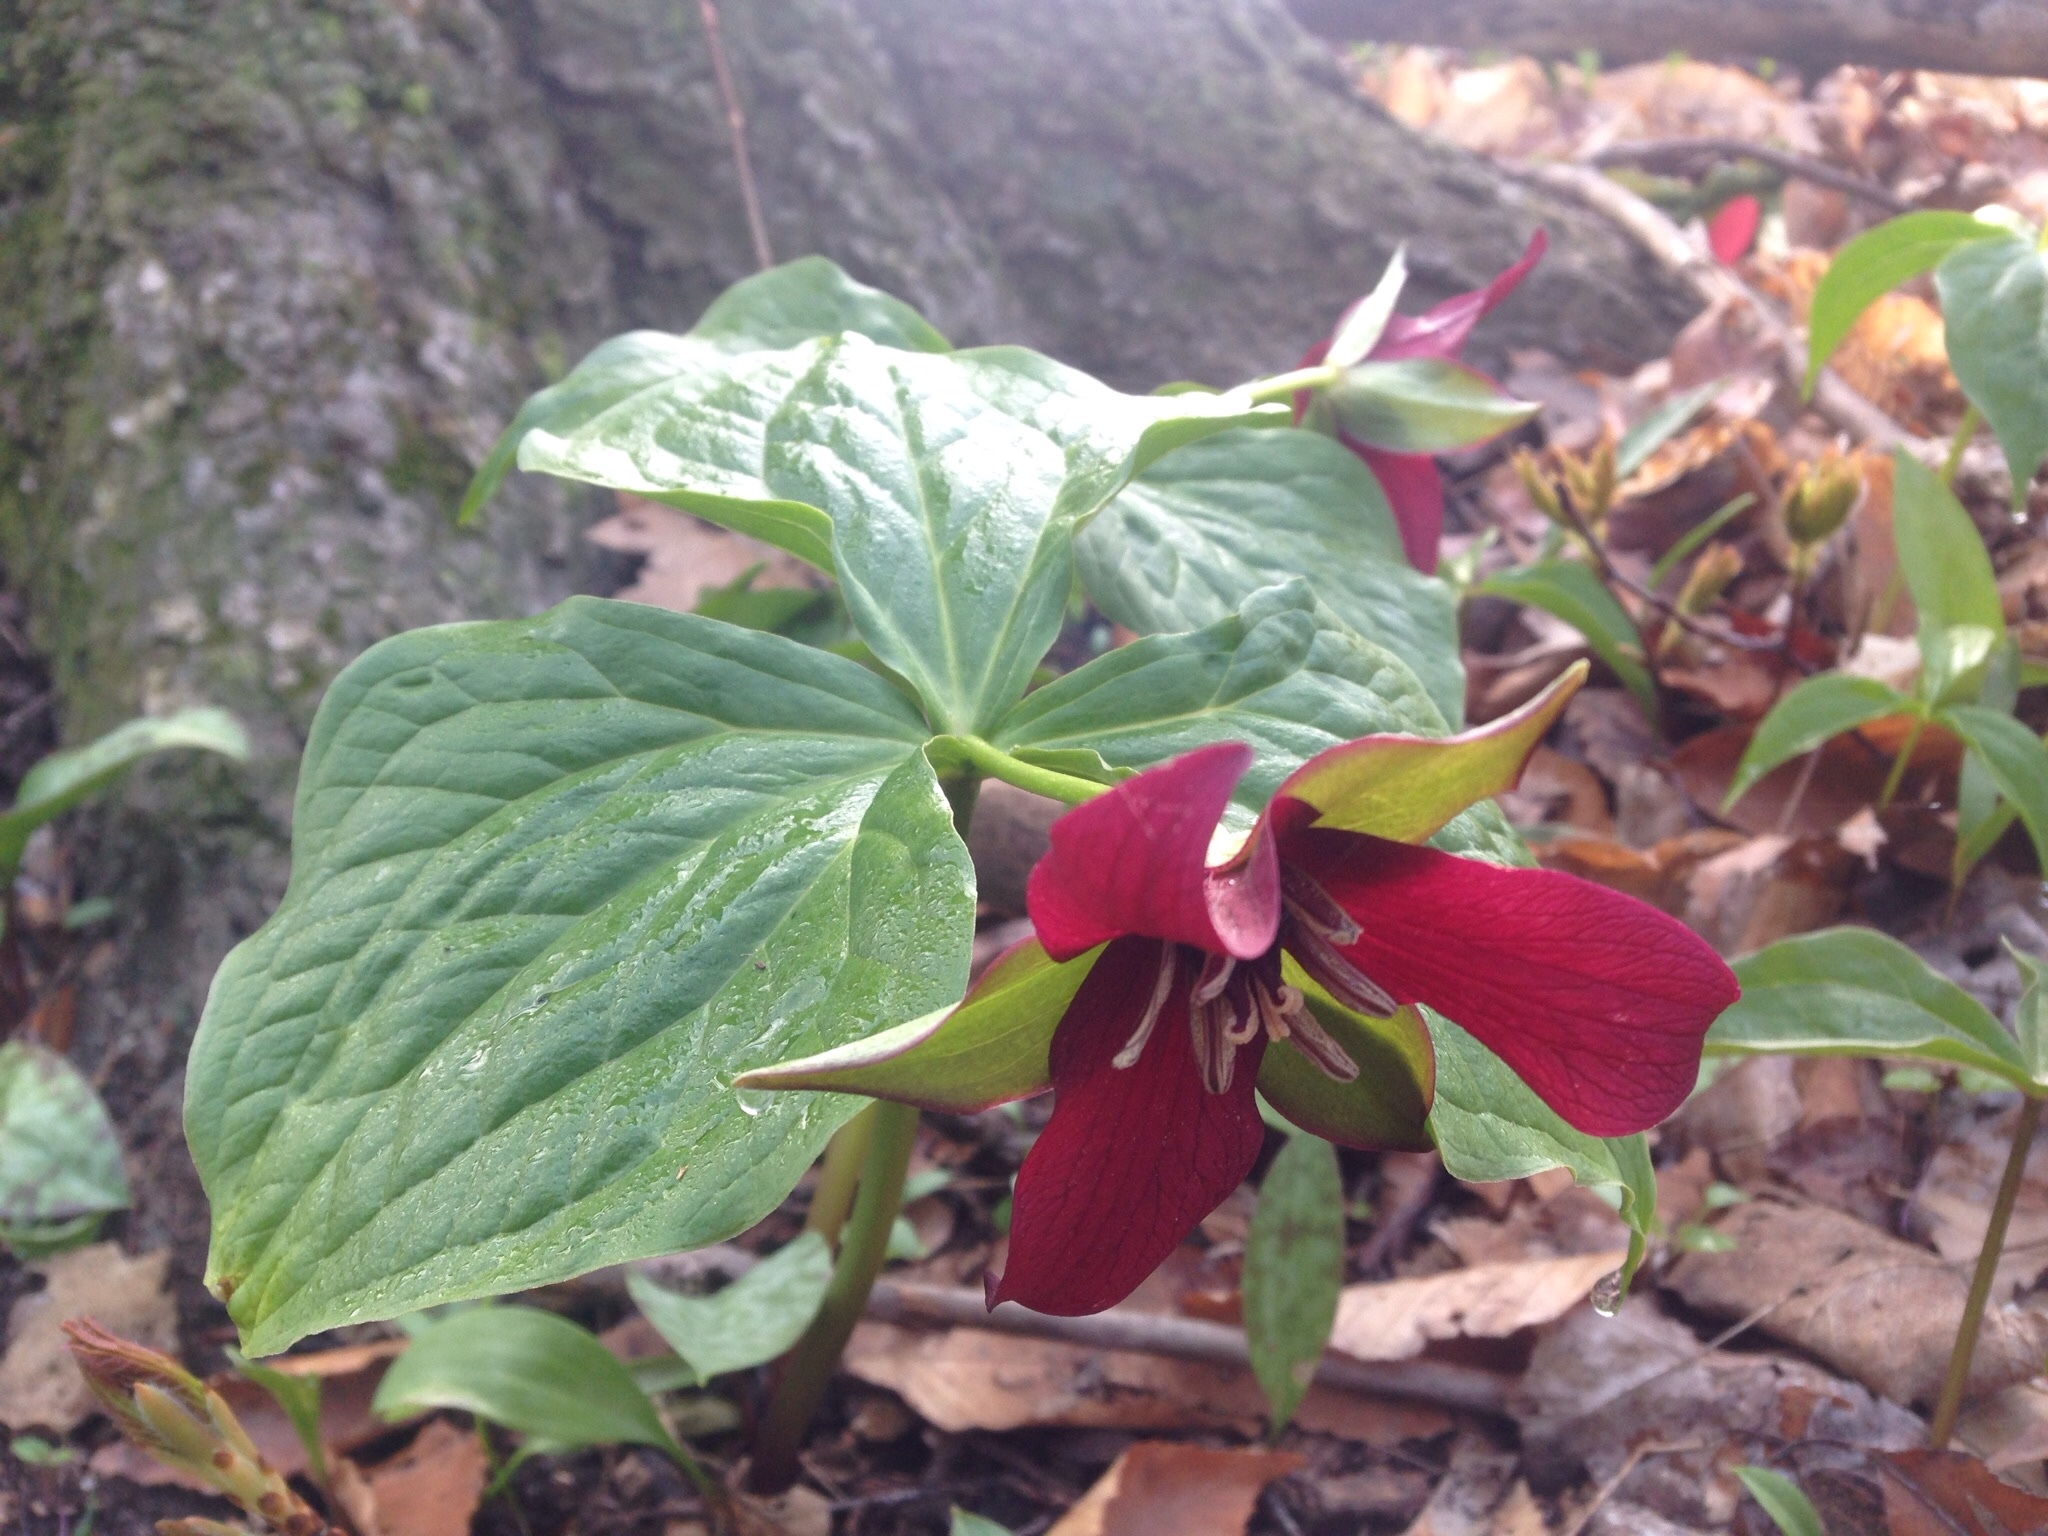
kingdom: Plantae
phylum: Tracheophyta
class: Liliopsida
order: Liliales
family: Melanthiaceae
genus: Trillium
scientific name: Trillium erectum
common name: Purple trillium
